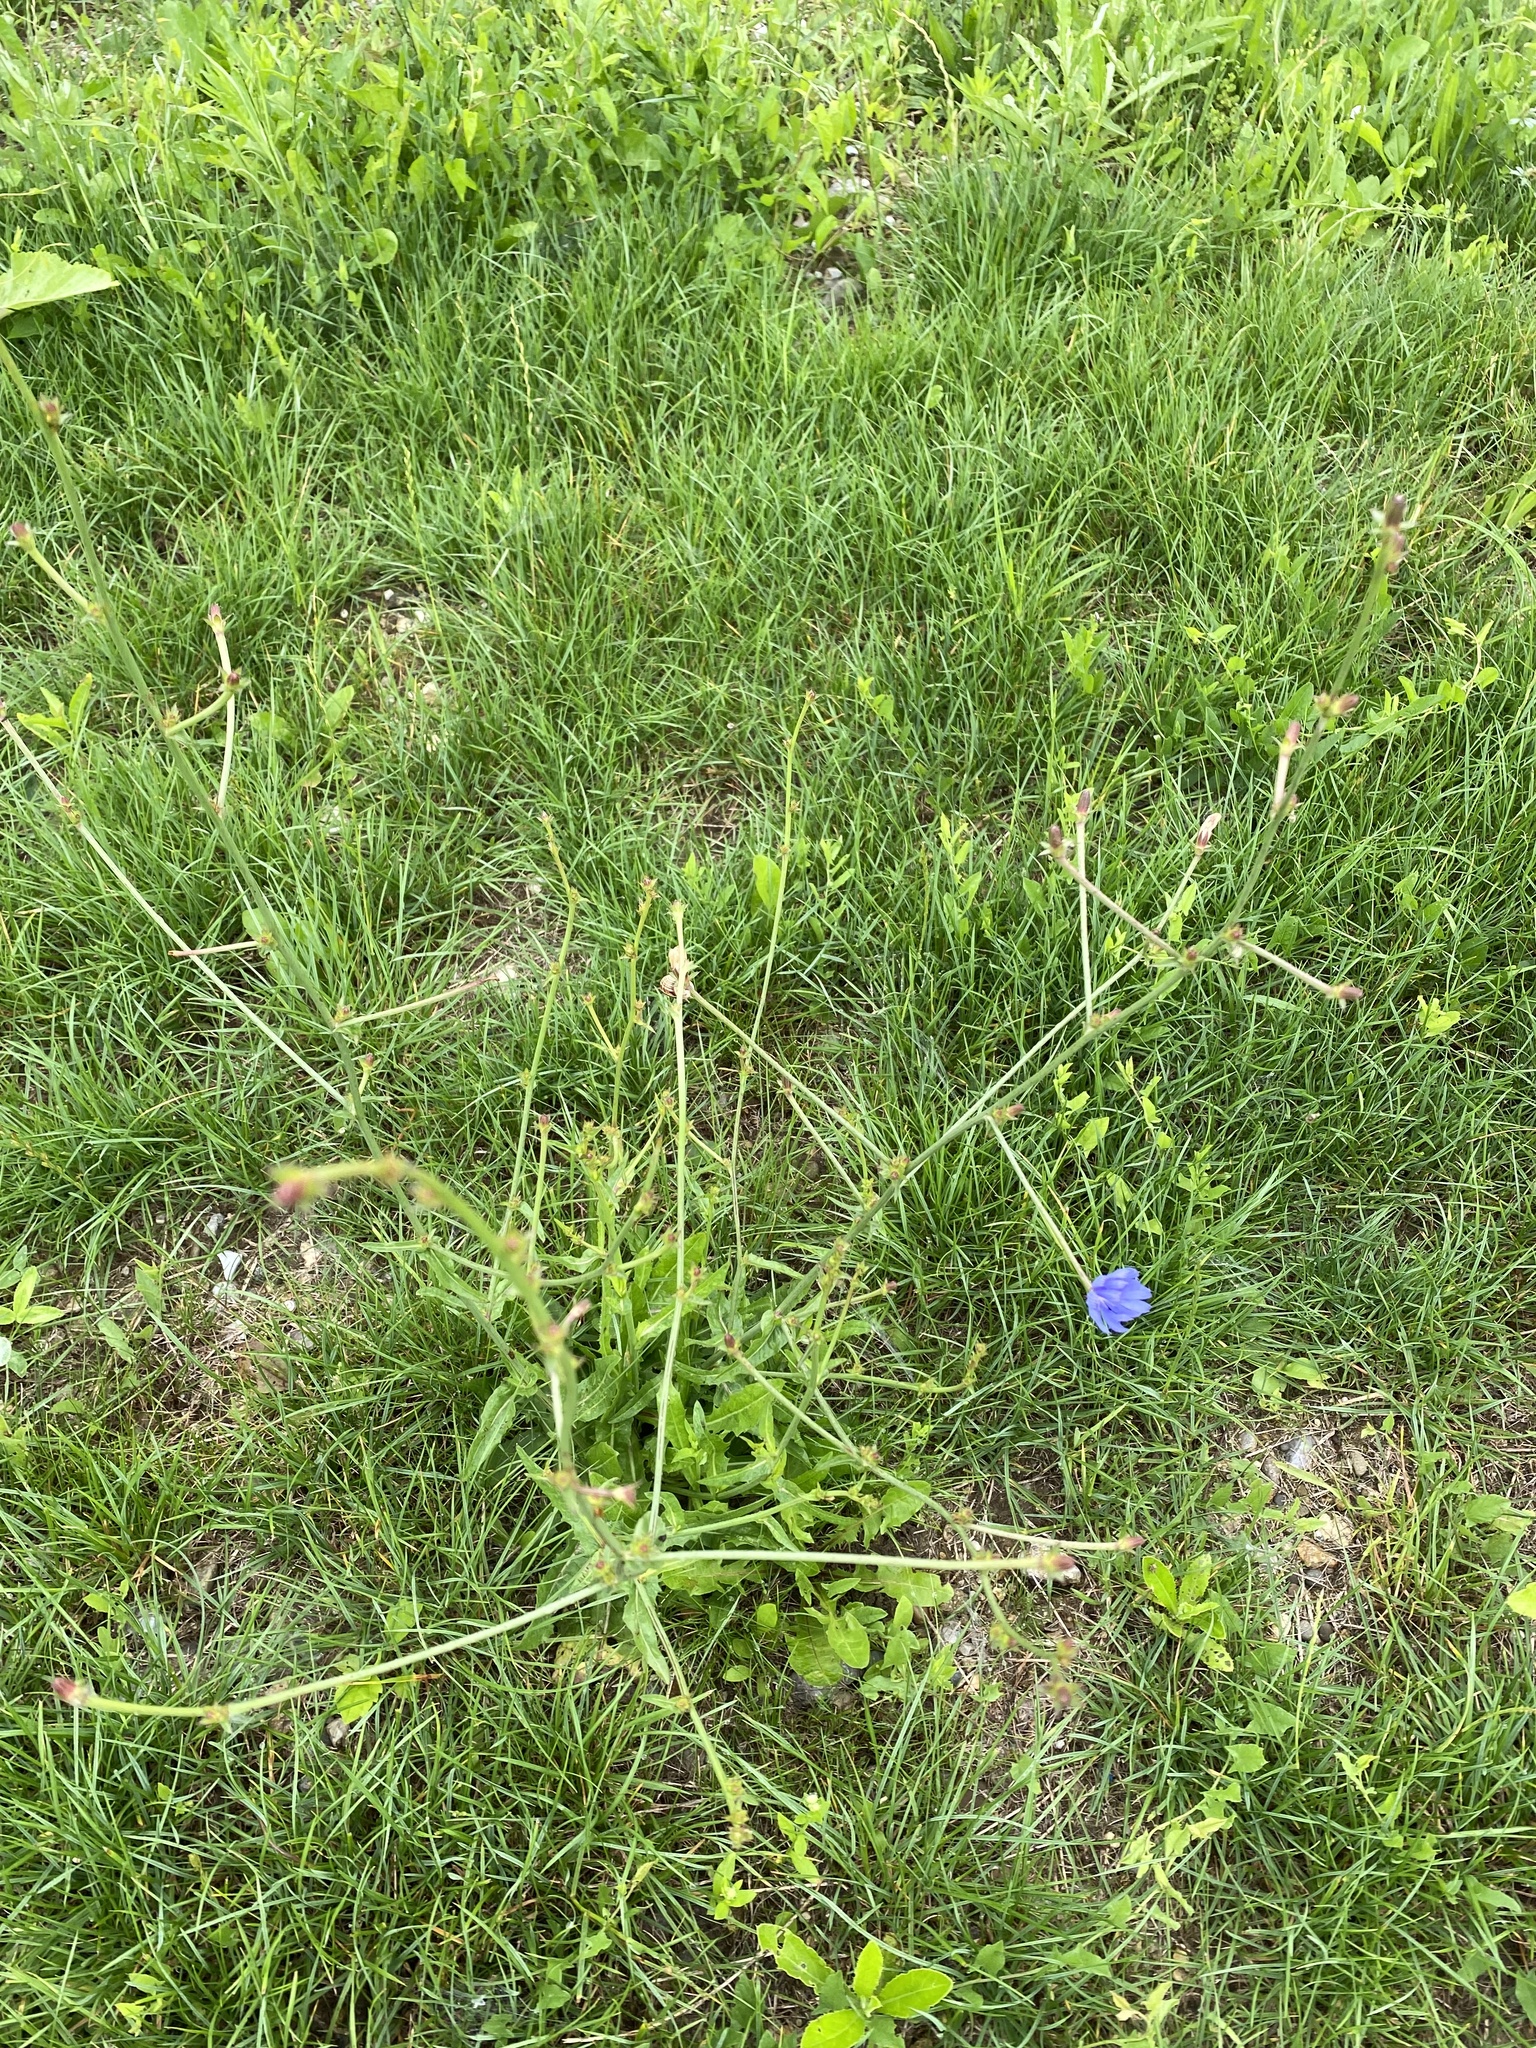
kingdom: Plantae
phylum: Tracheophyta
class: Magnoliopsida
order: Asterales
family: Asteraceae
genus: Cichorium
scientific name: Cichorium intybus
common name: Chicory
